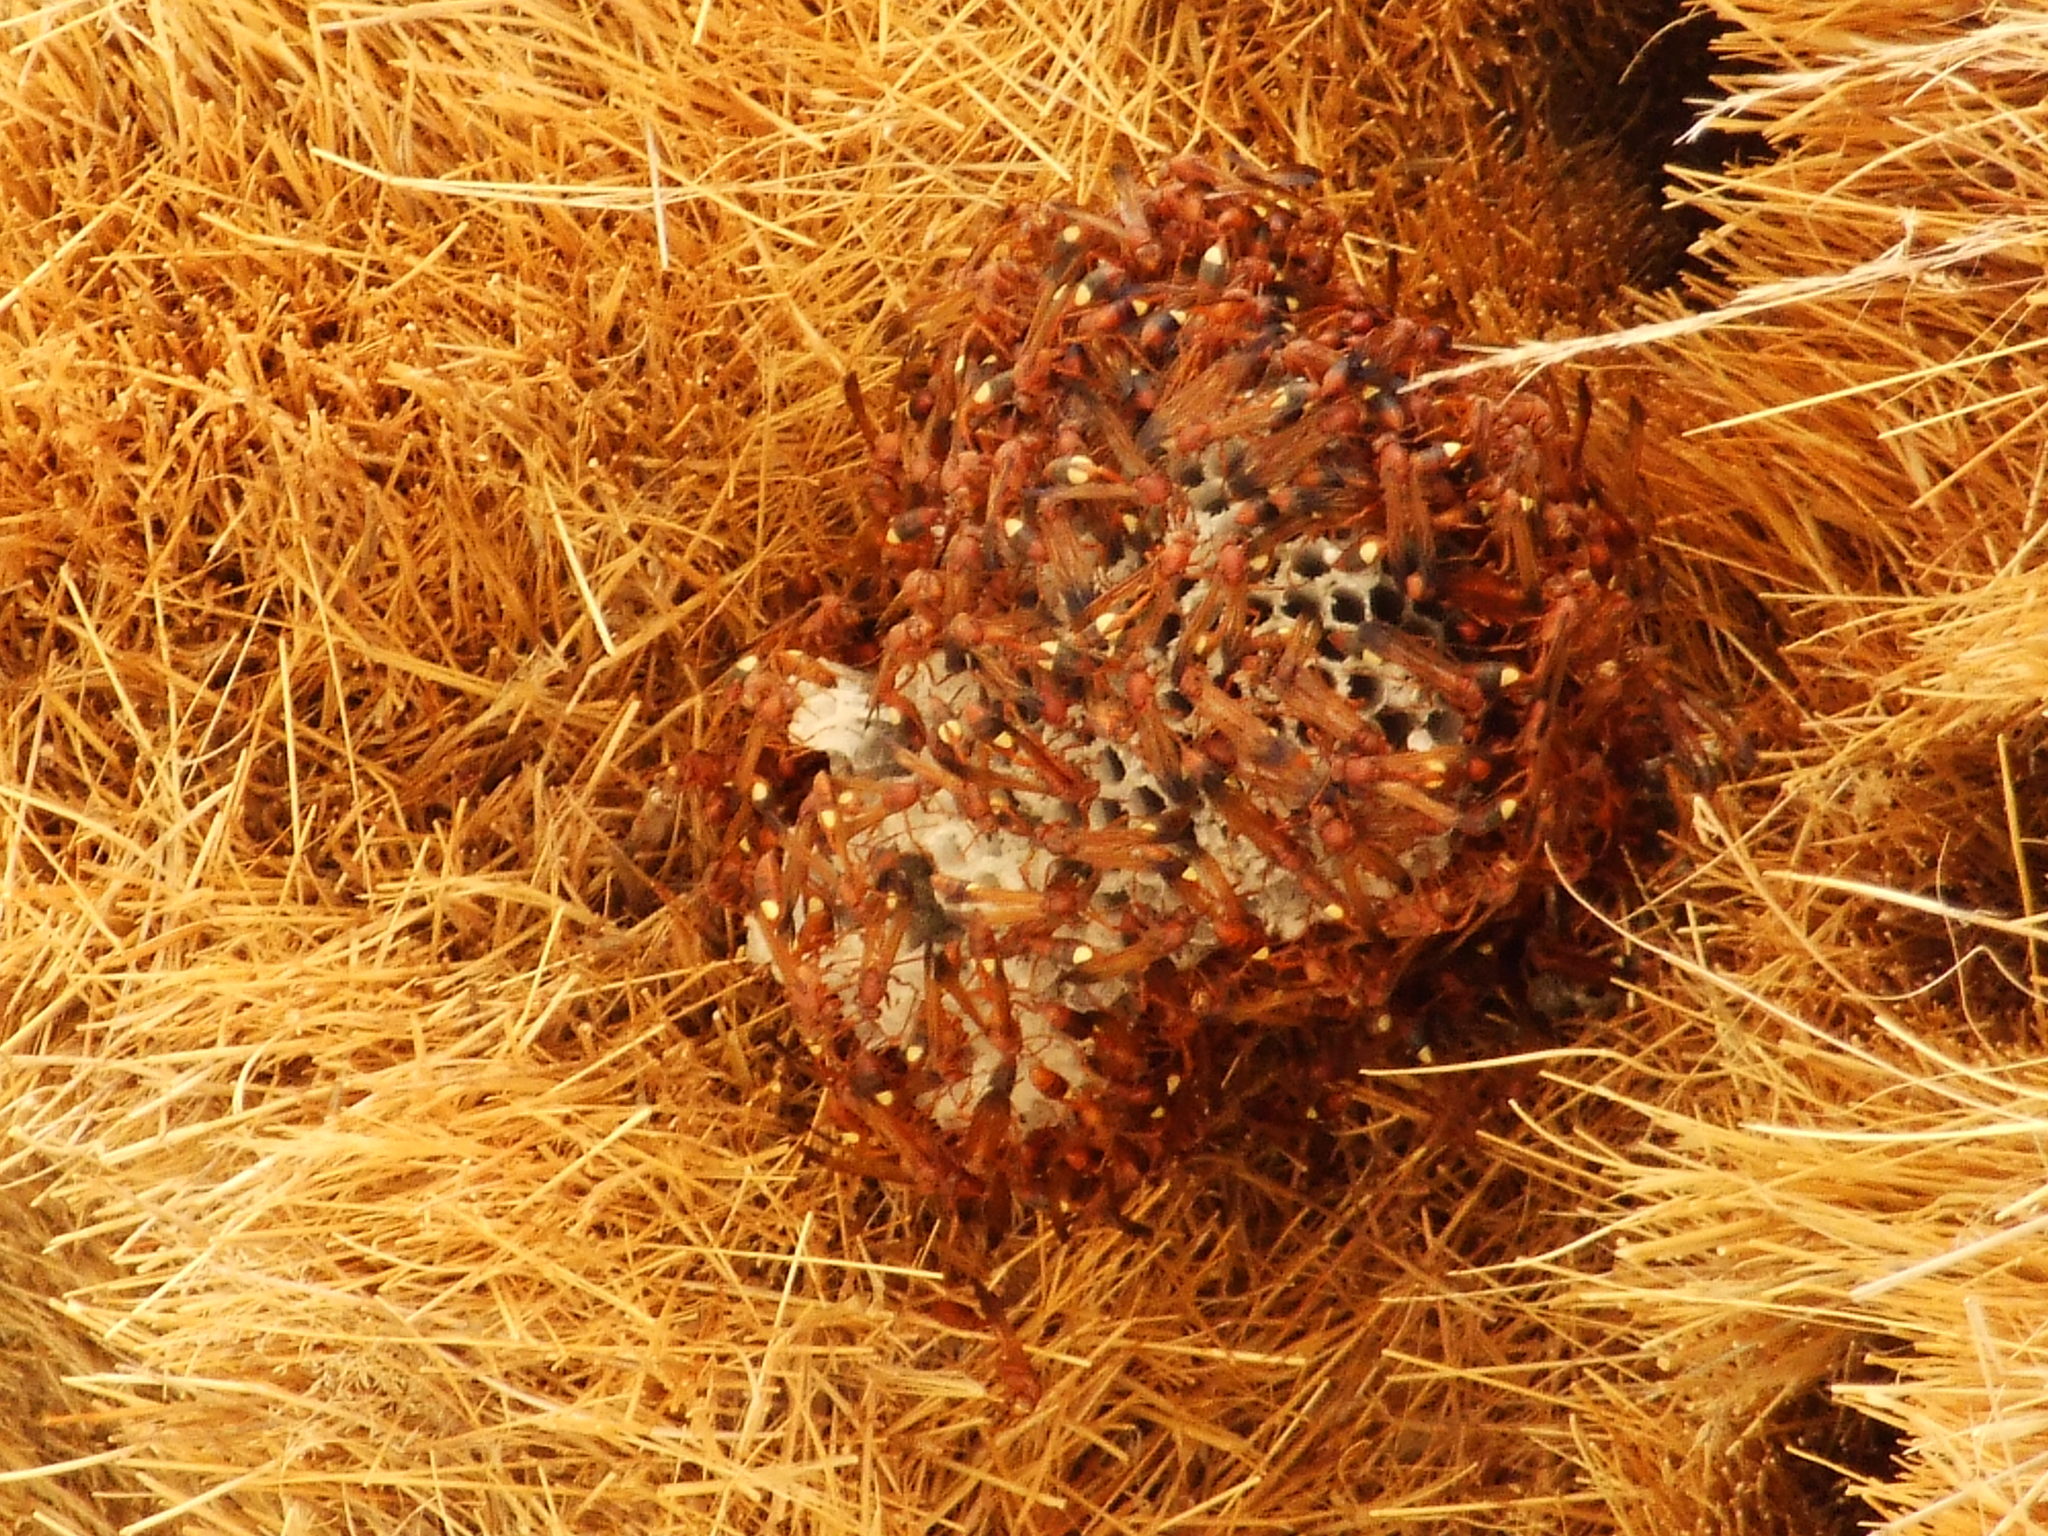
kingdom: Animalia
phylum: Arthropoda
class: Insecta
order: Hymenoptera
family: Eumenidae
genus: Belonogaster
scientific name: Belonogaster lateritius
